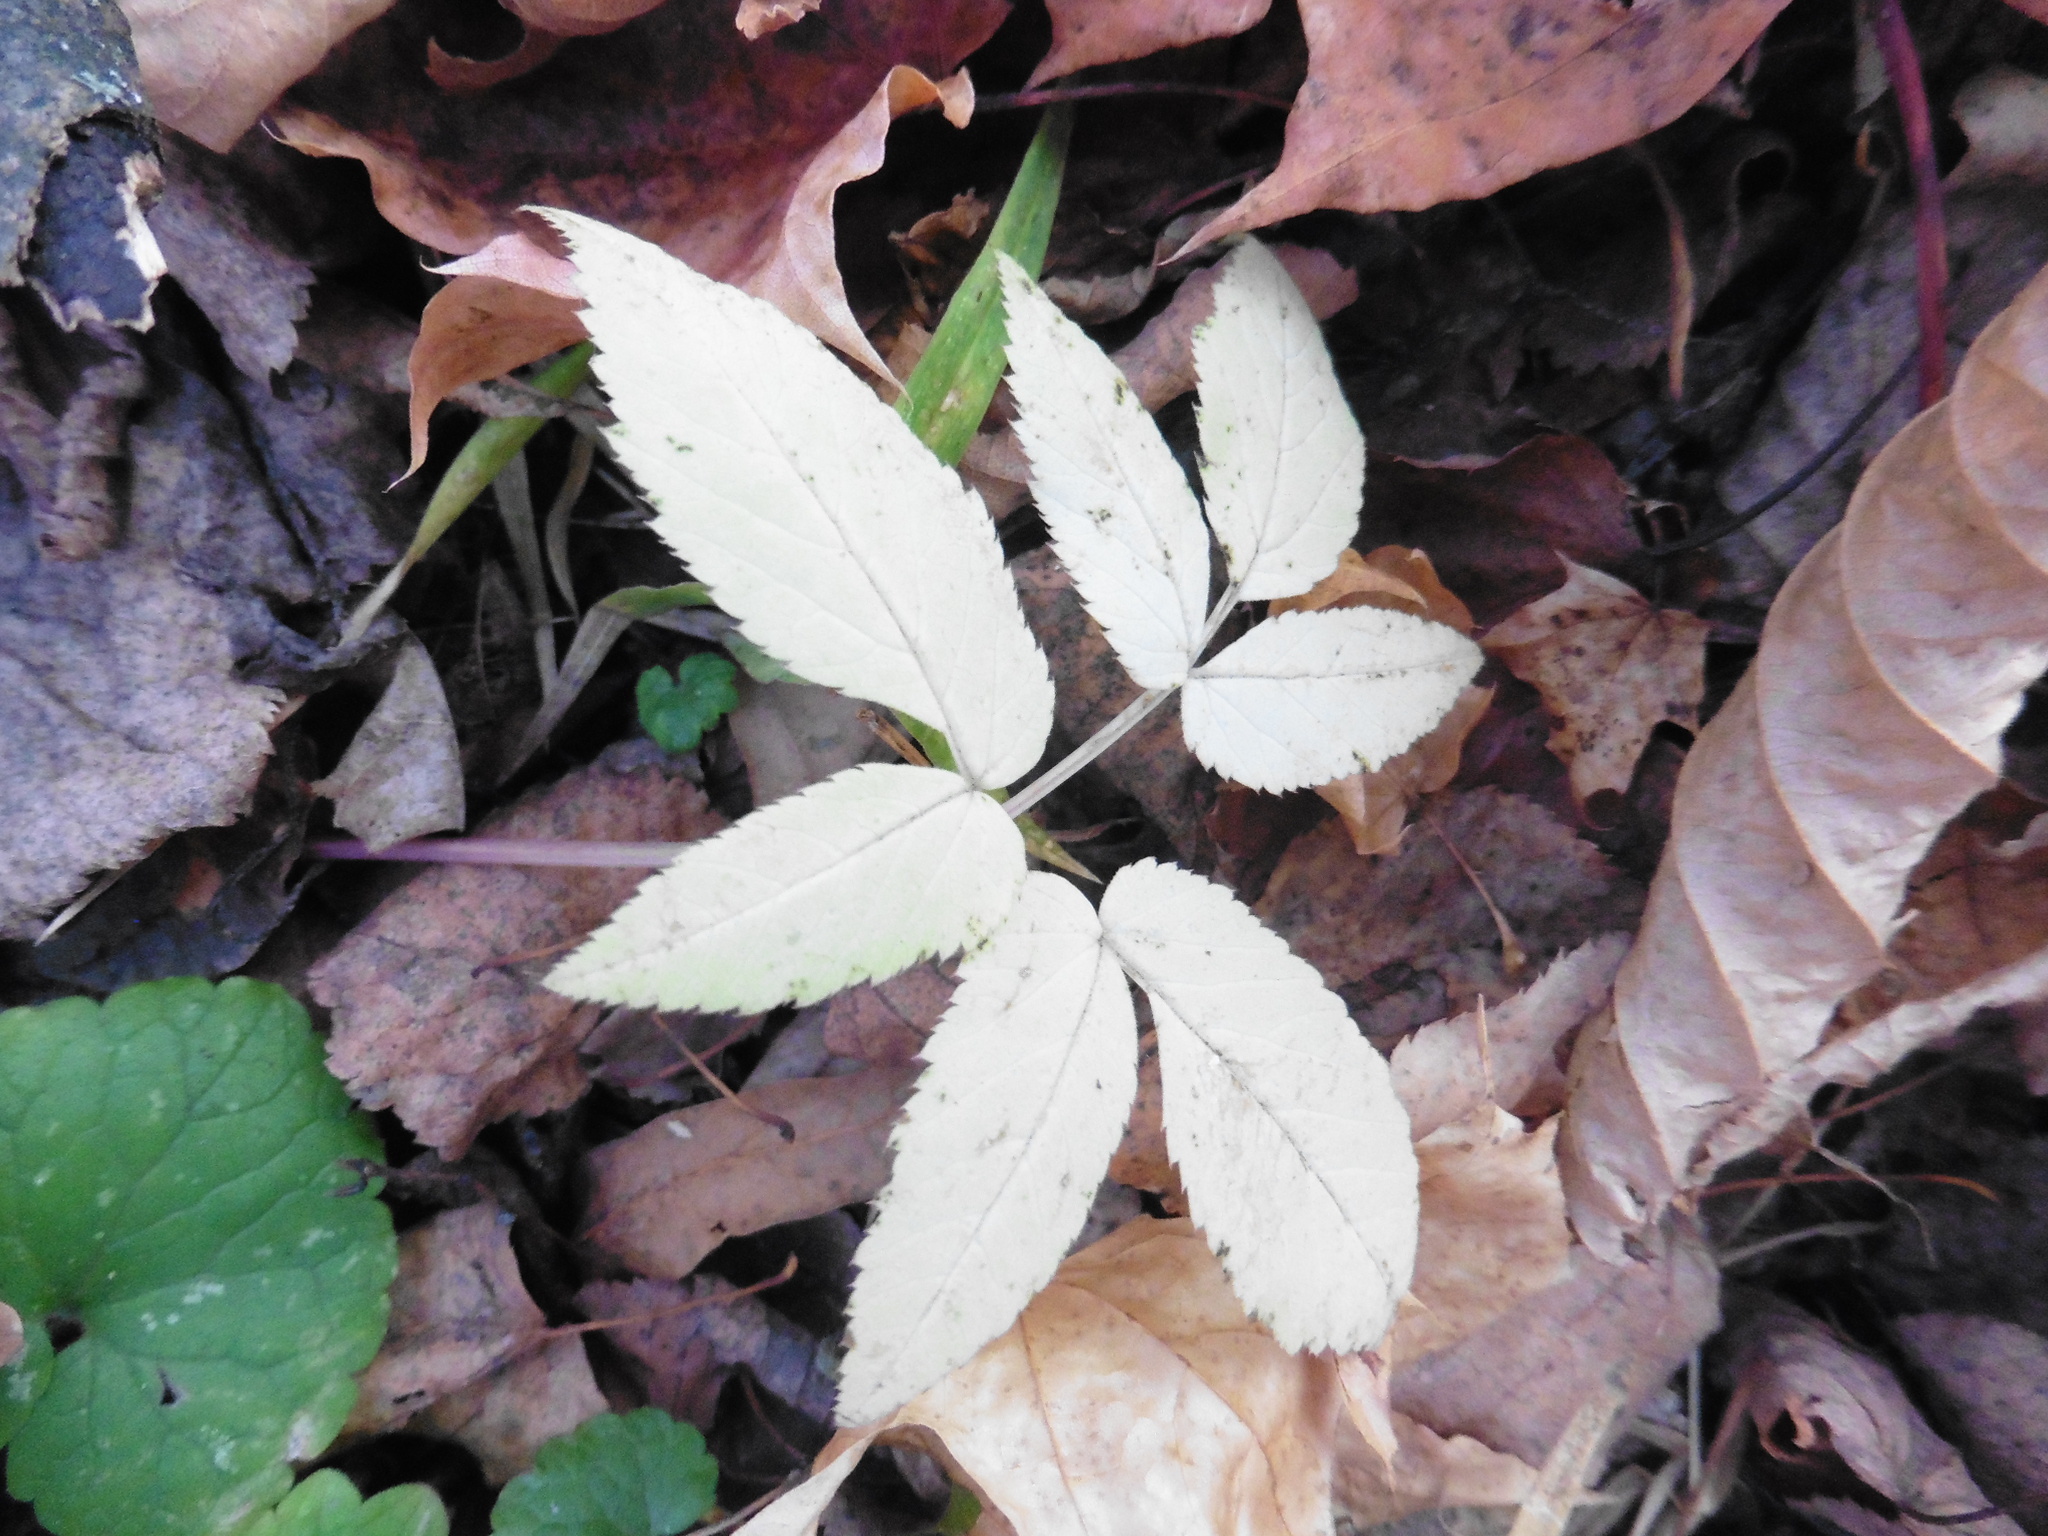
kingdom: Plantae
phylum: Tracheophyta
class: Magnoliopsida
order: Apiales
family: Apiaceae
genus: Aegopodium
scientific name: Aegopodium podagraria
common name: Ground-elder
